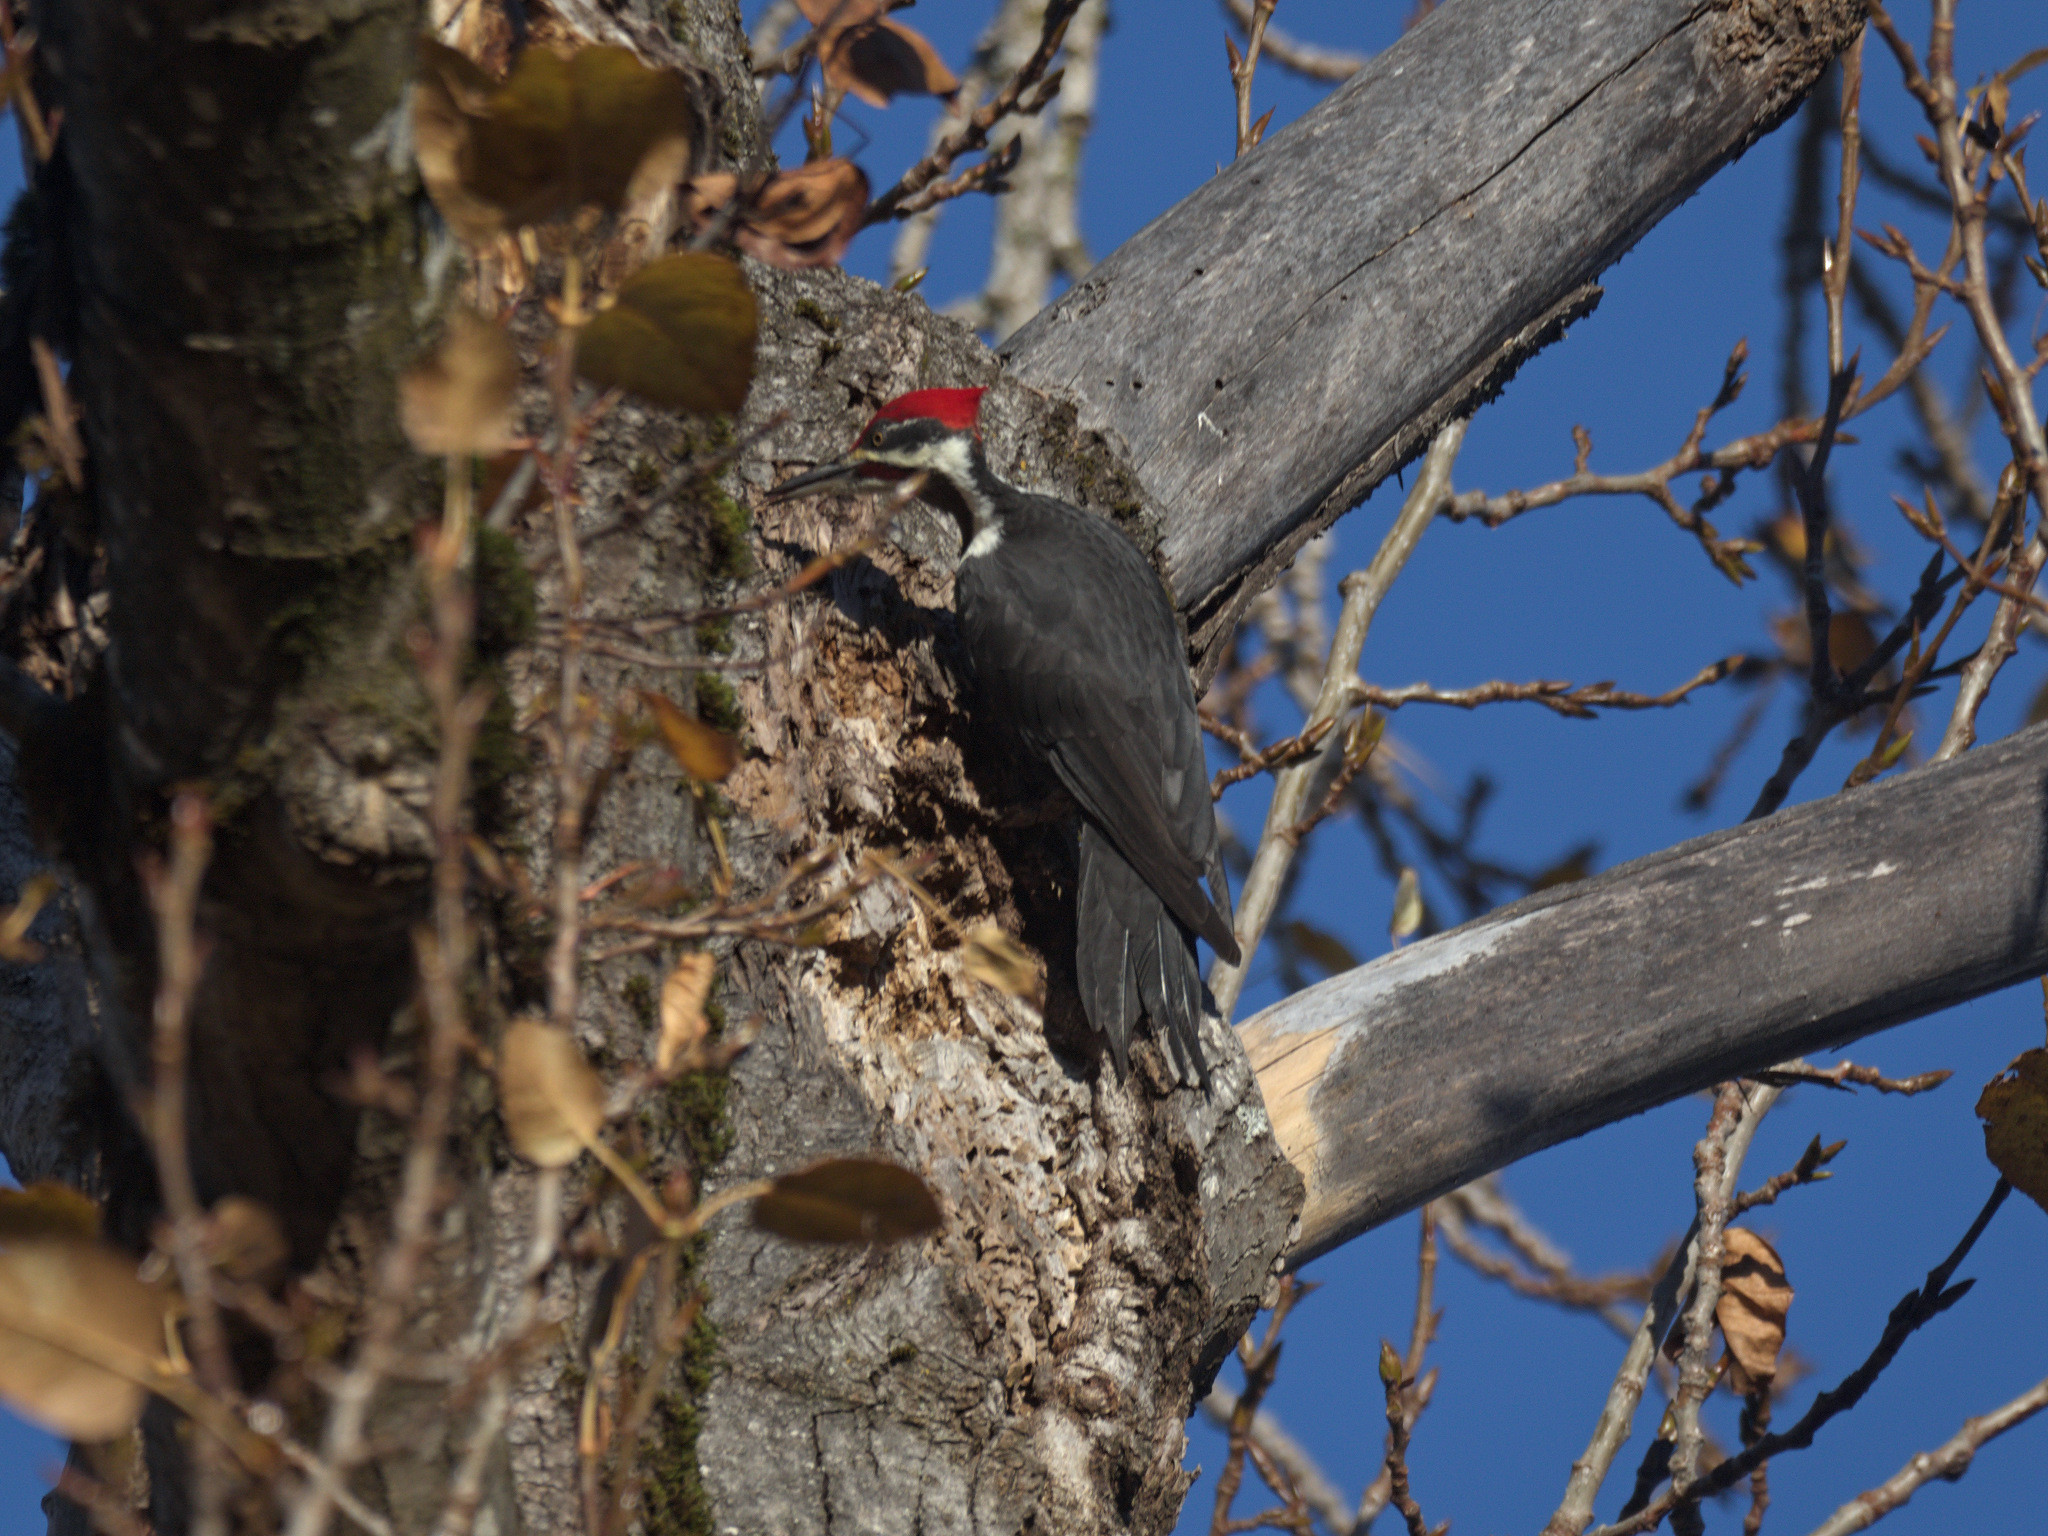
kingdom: Animalia
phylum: Chordata
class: Aves
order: Piciformes
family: Picidae
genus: Dryocopus
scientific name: Dryocopus pileatus
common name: Pileated woodpecker
